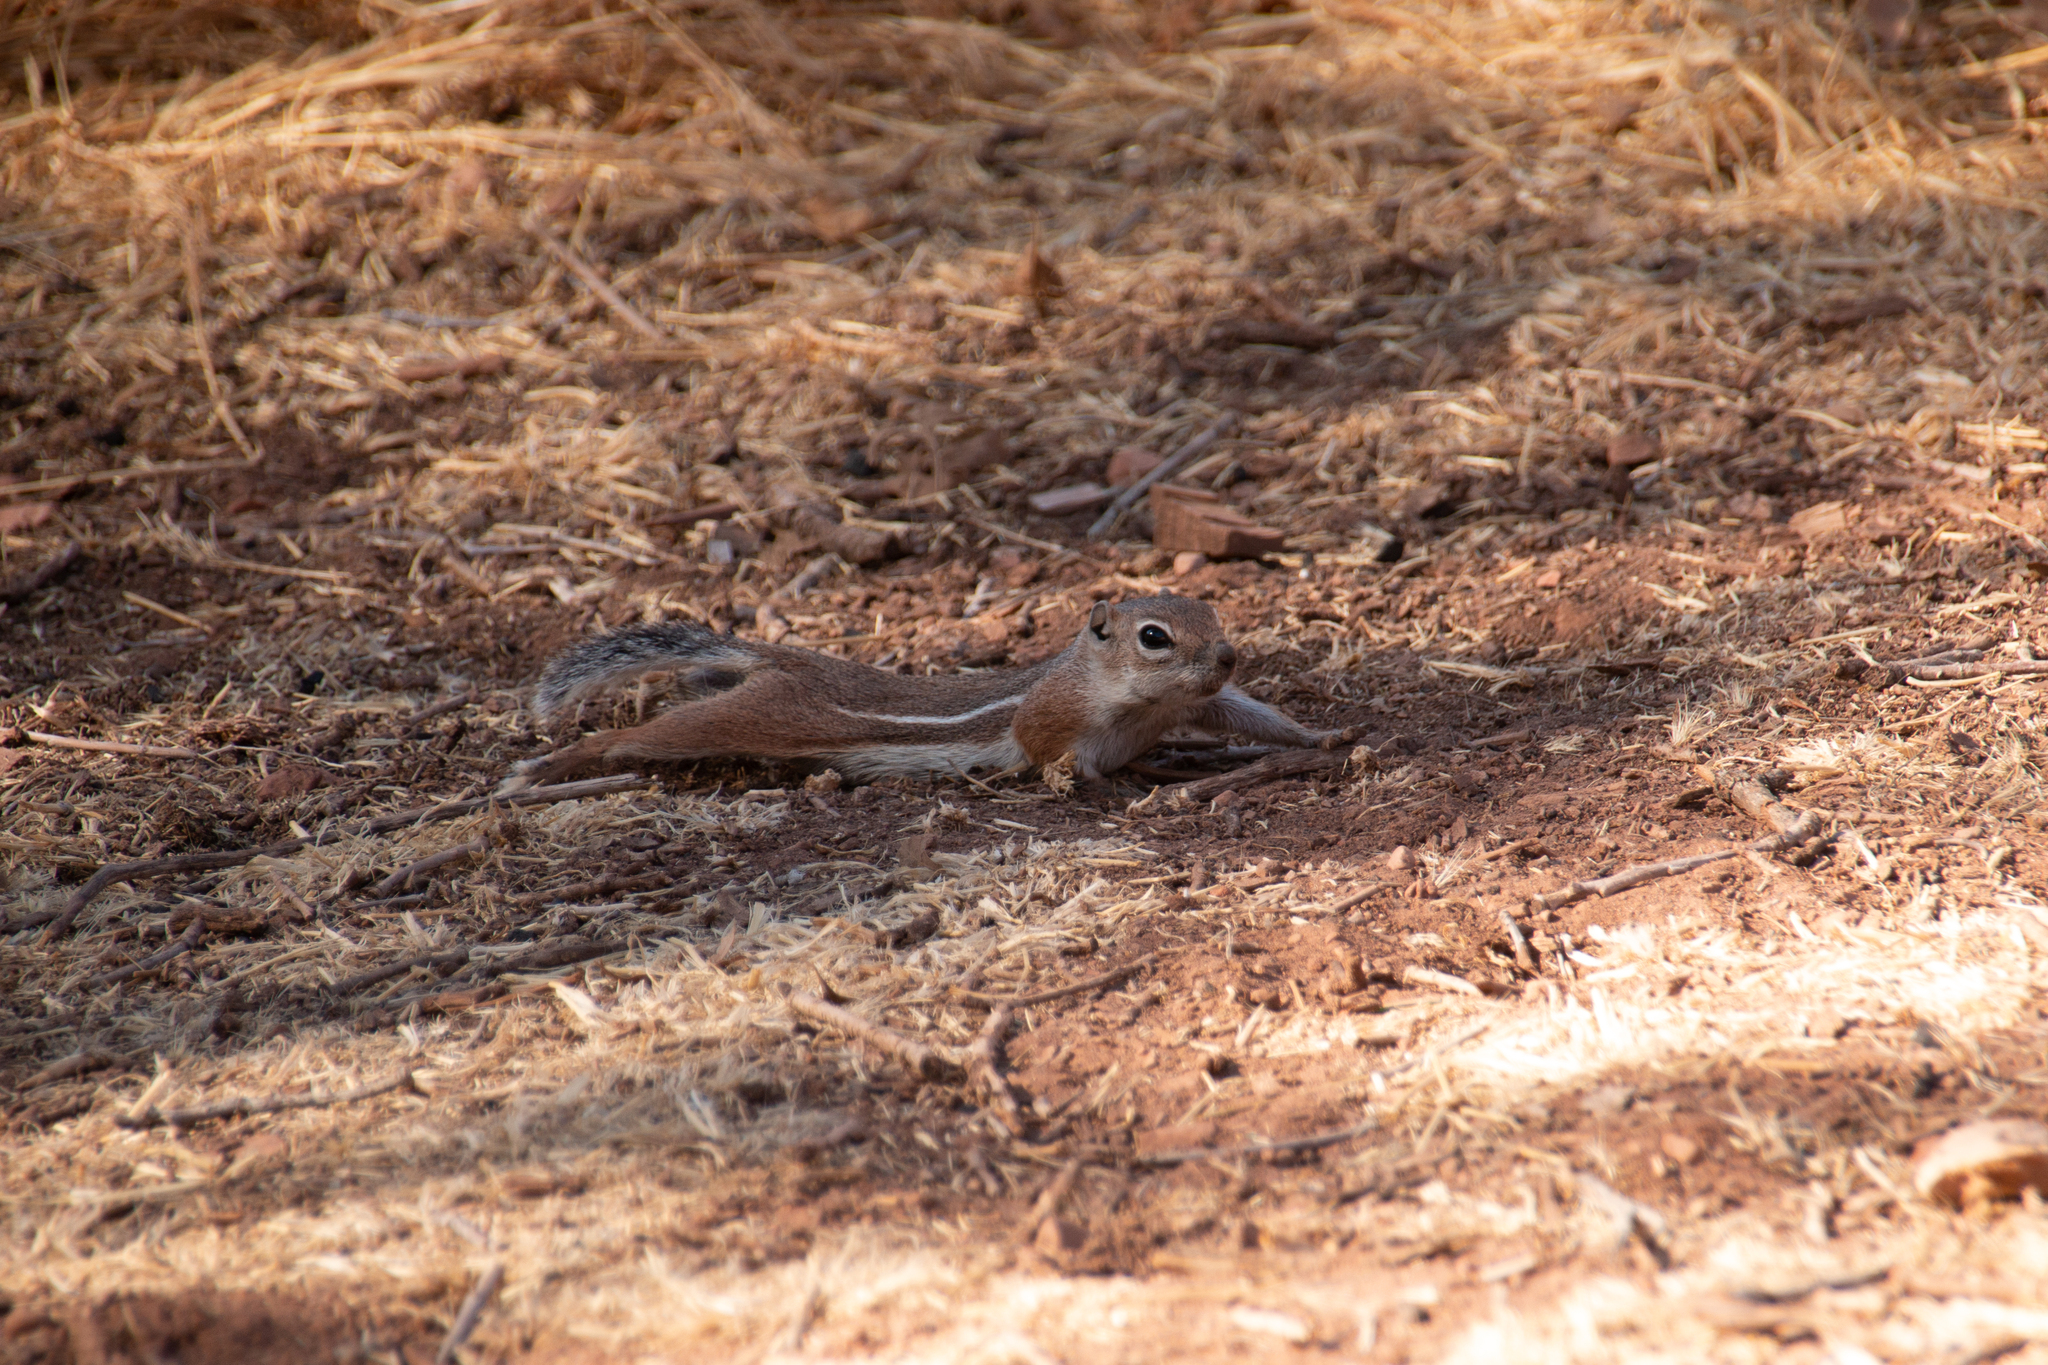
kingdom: Animalia
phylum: Chordata
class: Mammalia
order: Rodentia
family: Sciuridae
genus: Ammospermophilus
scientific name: Ammospermophilus leucurus
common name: White-tailed antelope squirrel
